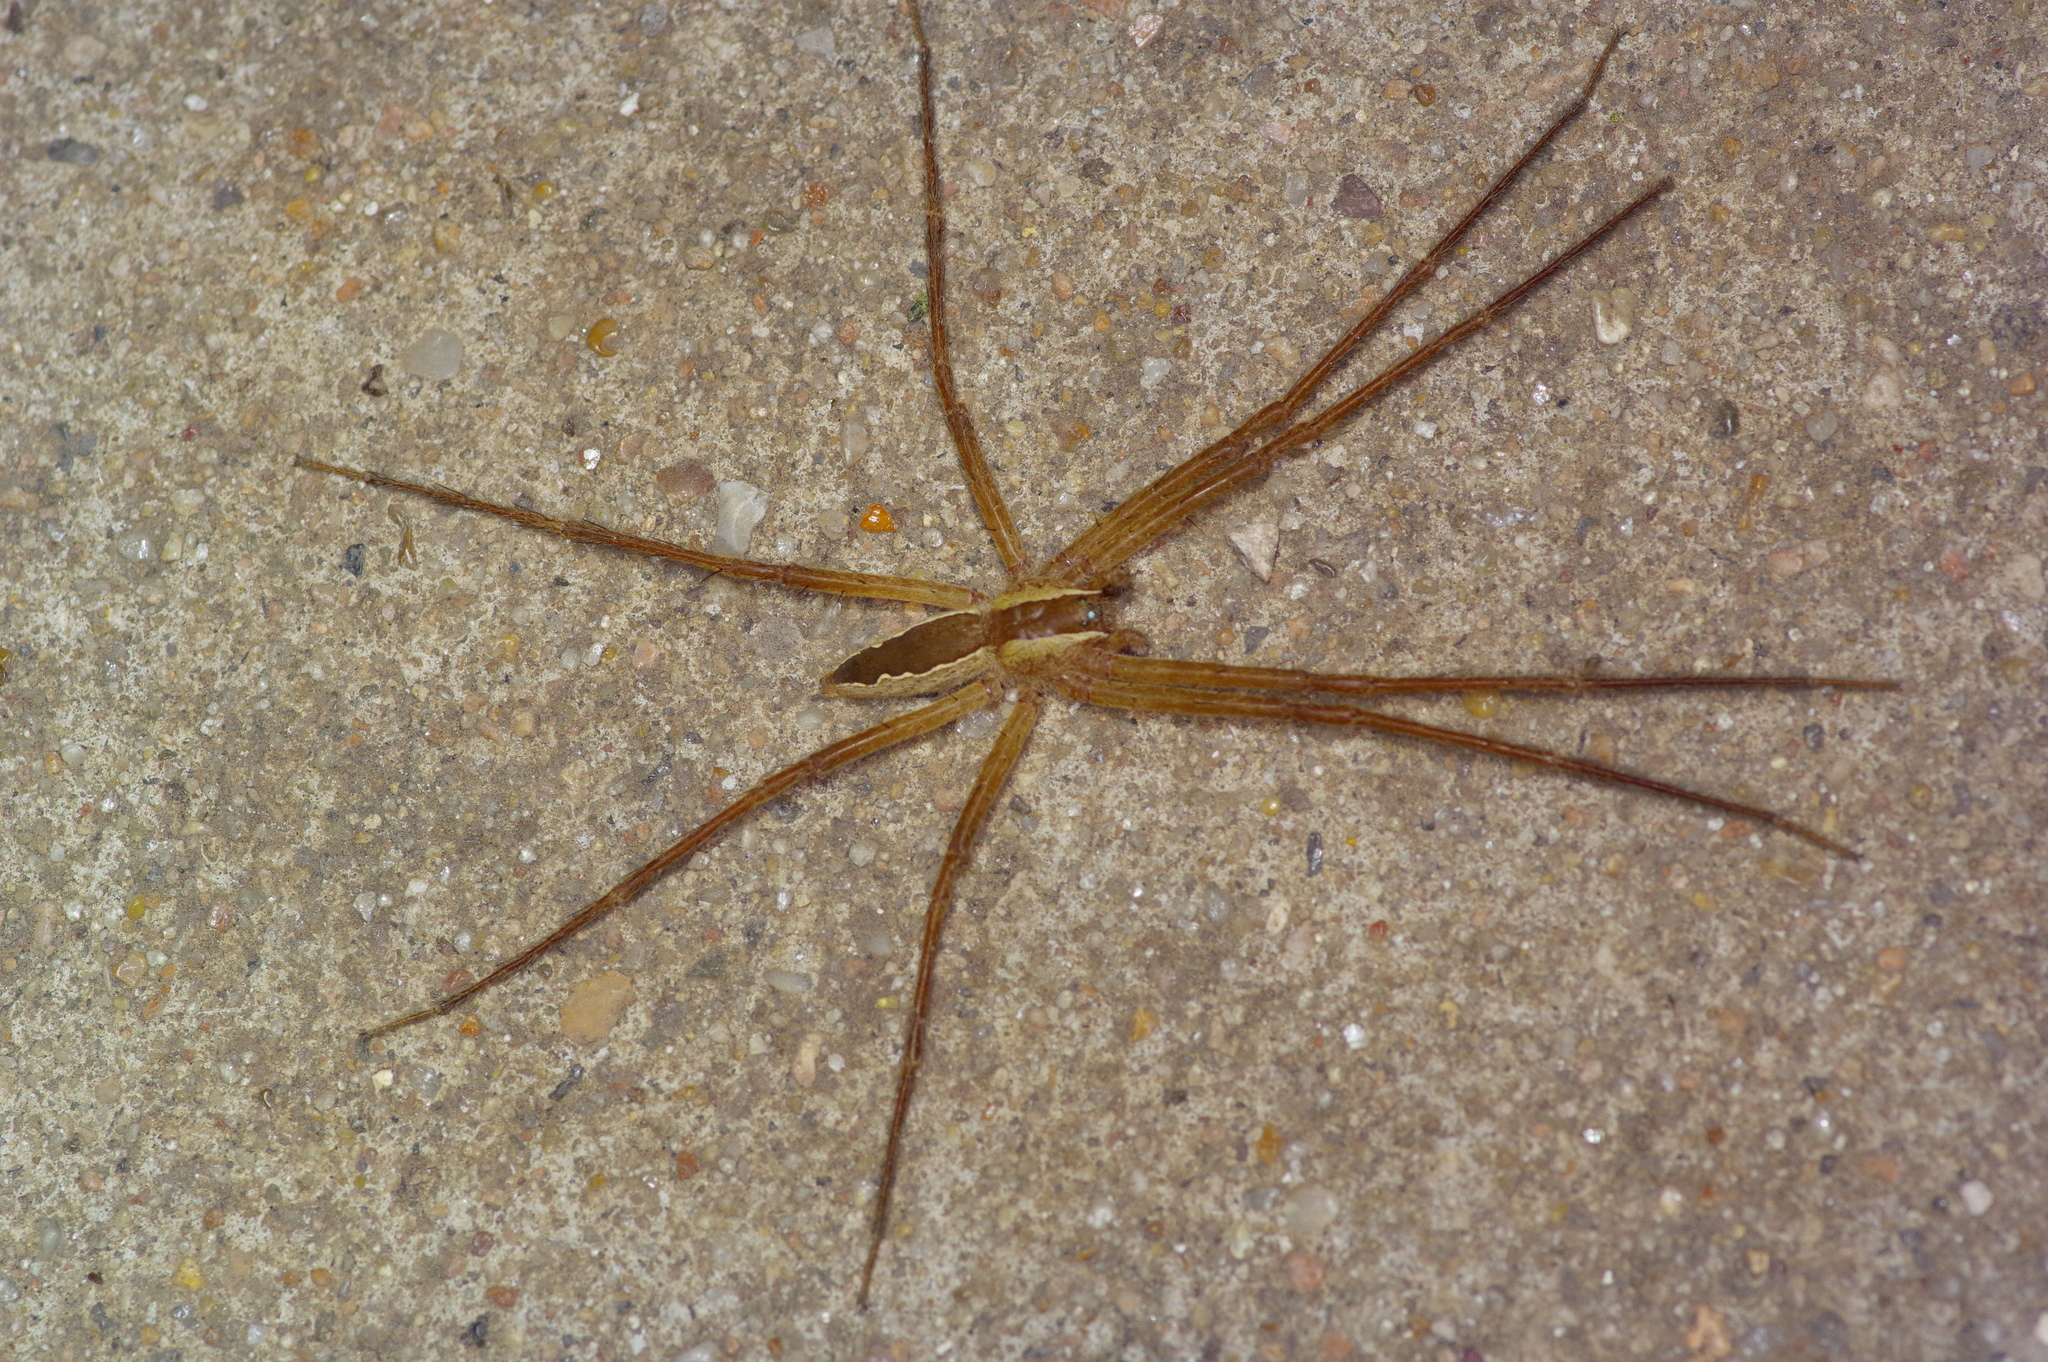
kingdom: Animalia
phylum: Arthropoda
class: Arachnida
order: Araneae
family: Pisauridae
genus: Pisaurina
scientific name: Pisaurina mira
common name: American nursery web spider
